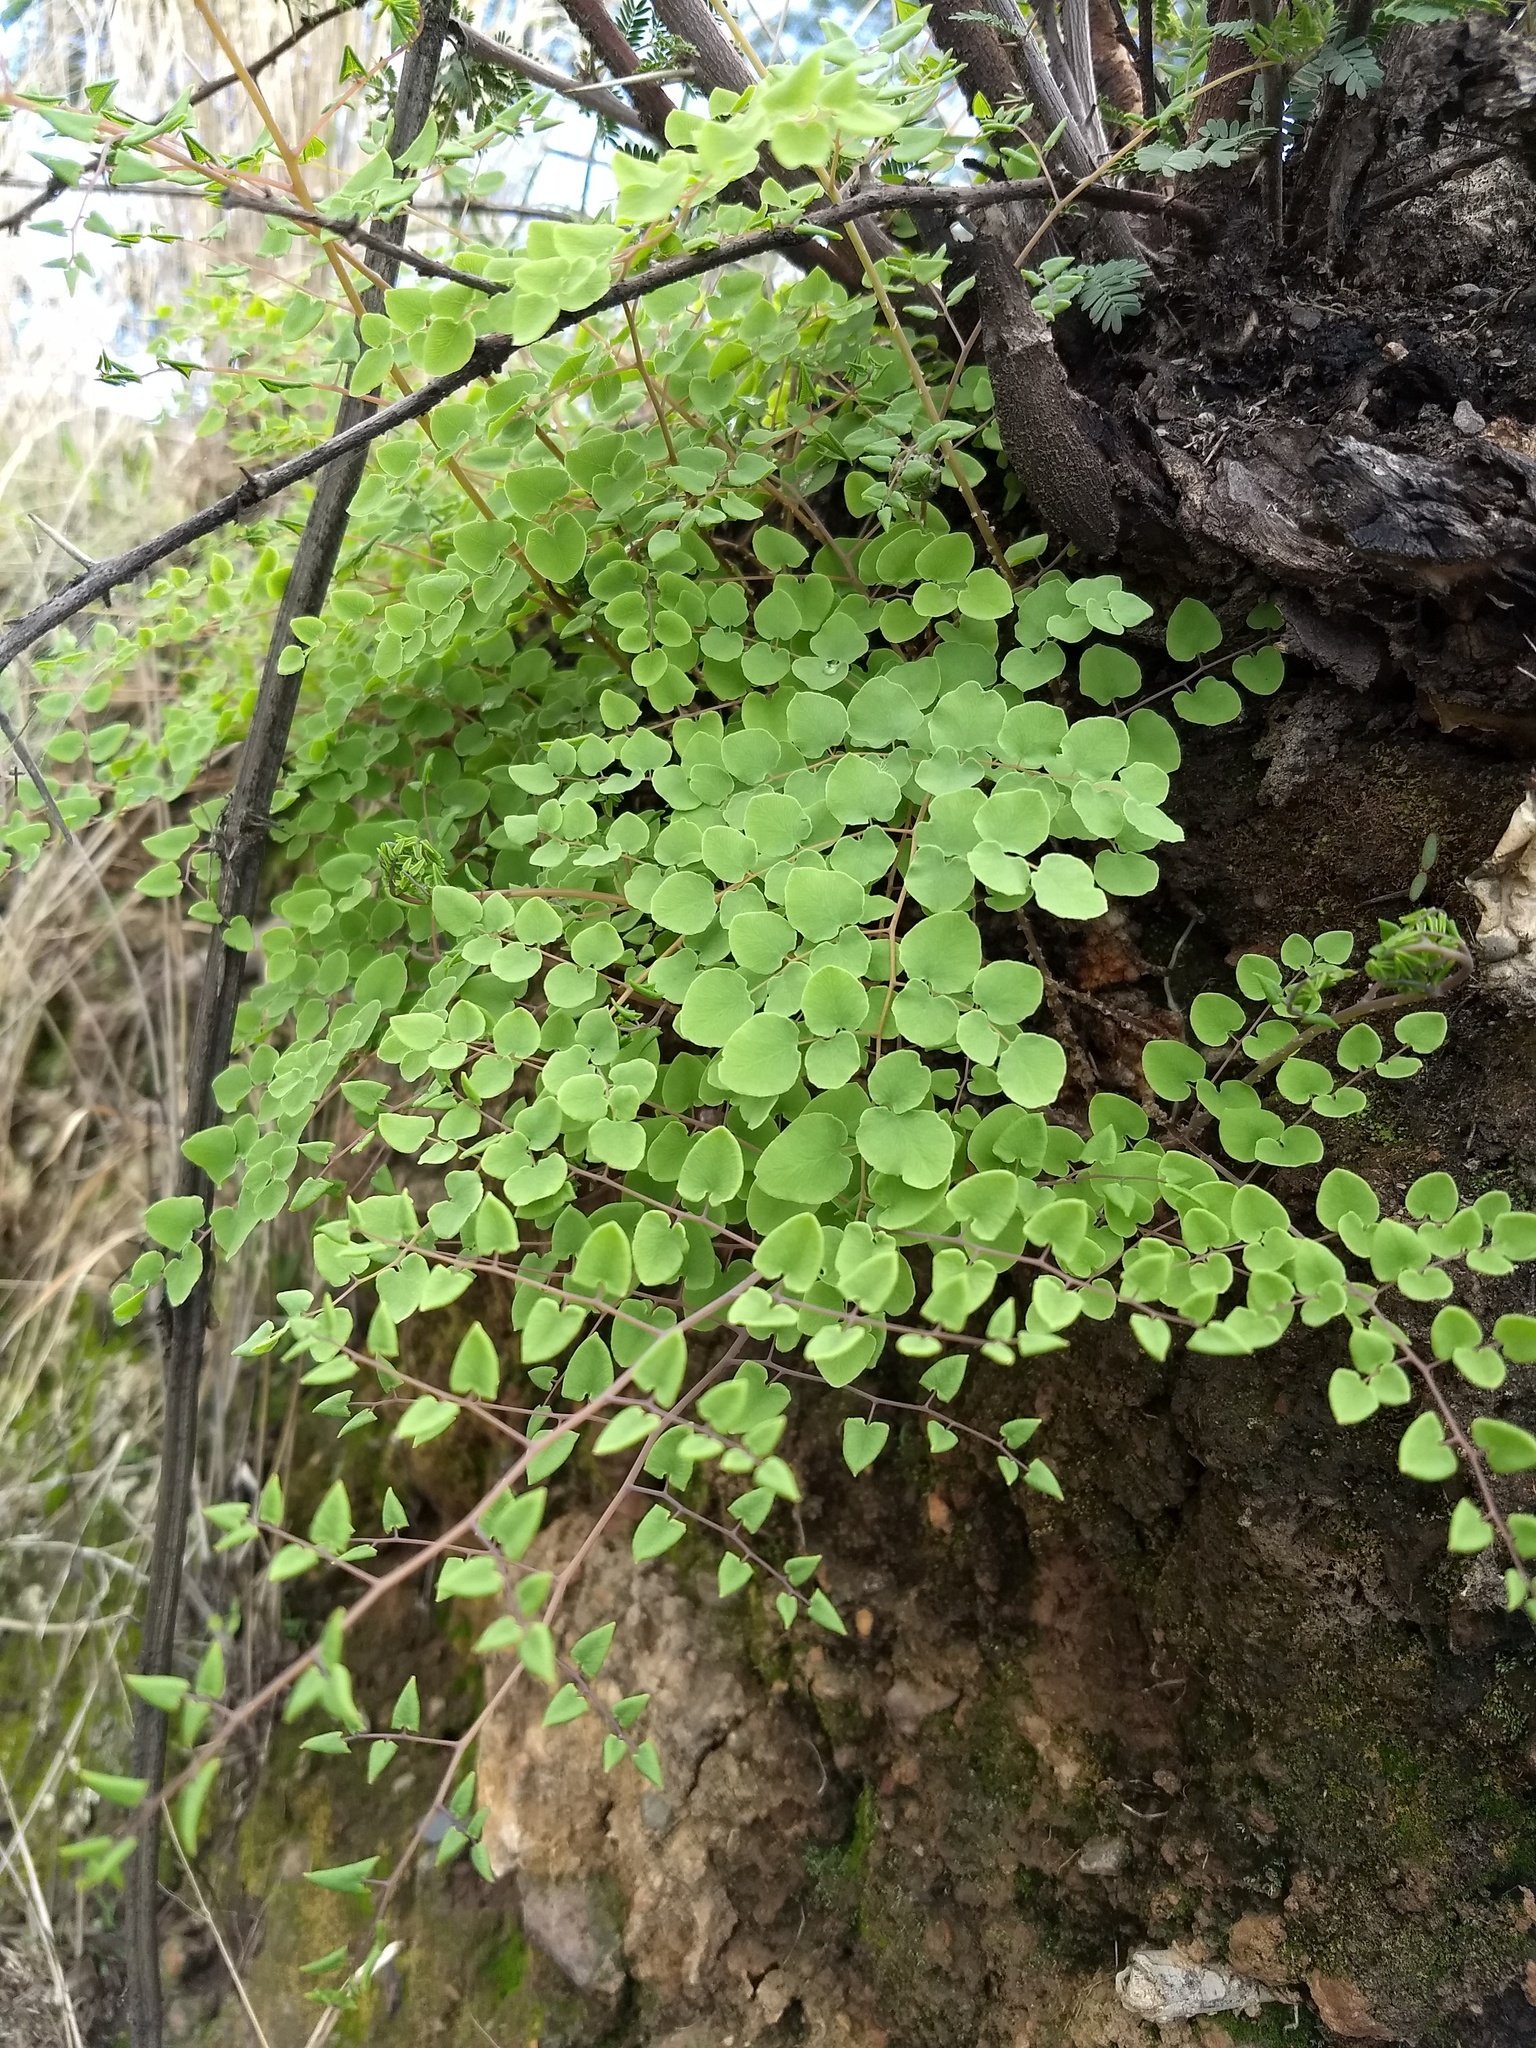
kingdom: Plantae
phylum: Tracheophyta
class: Polypodiopsida
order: Polypodiales
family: Pteridaceae
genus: Pellaea
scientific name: Pellaea cordifolia
